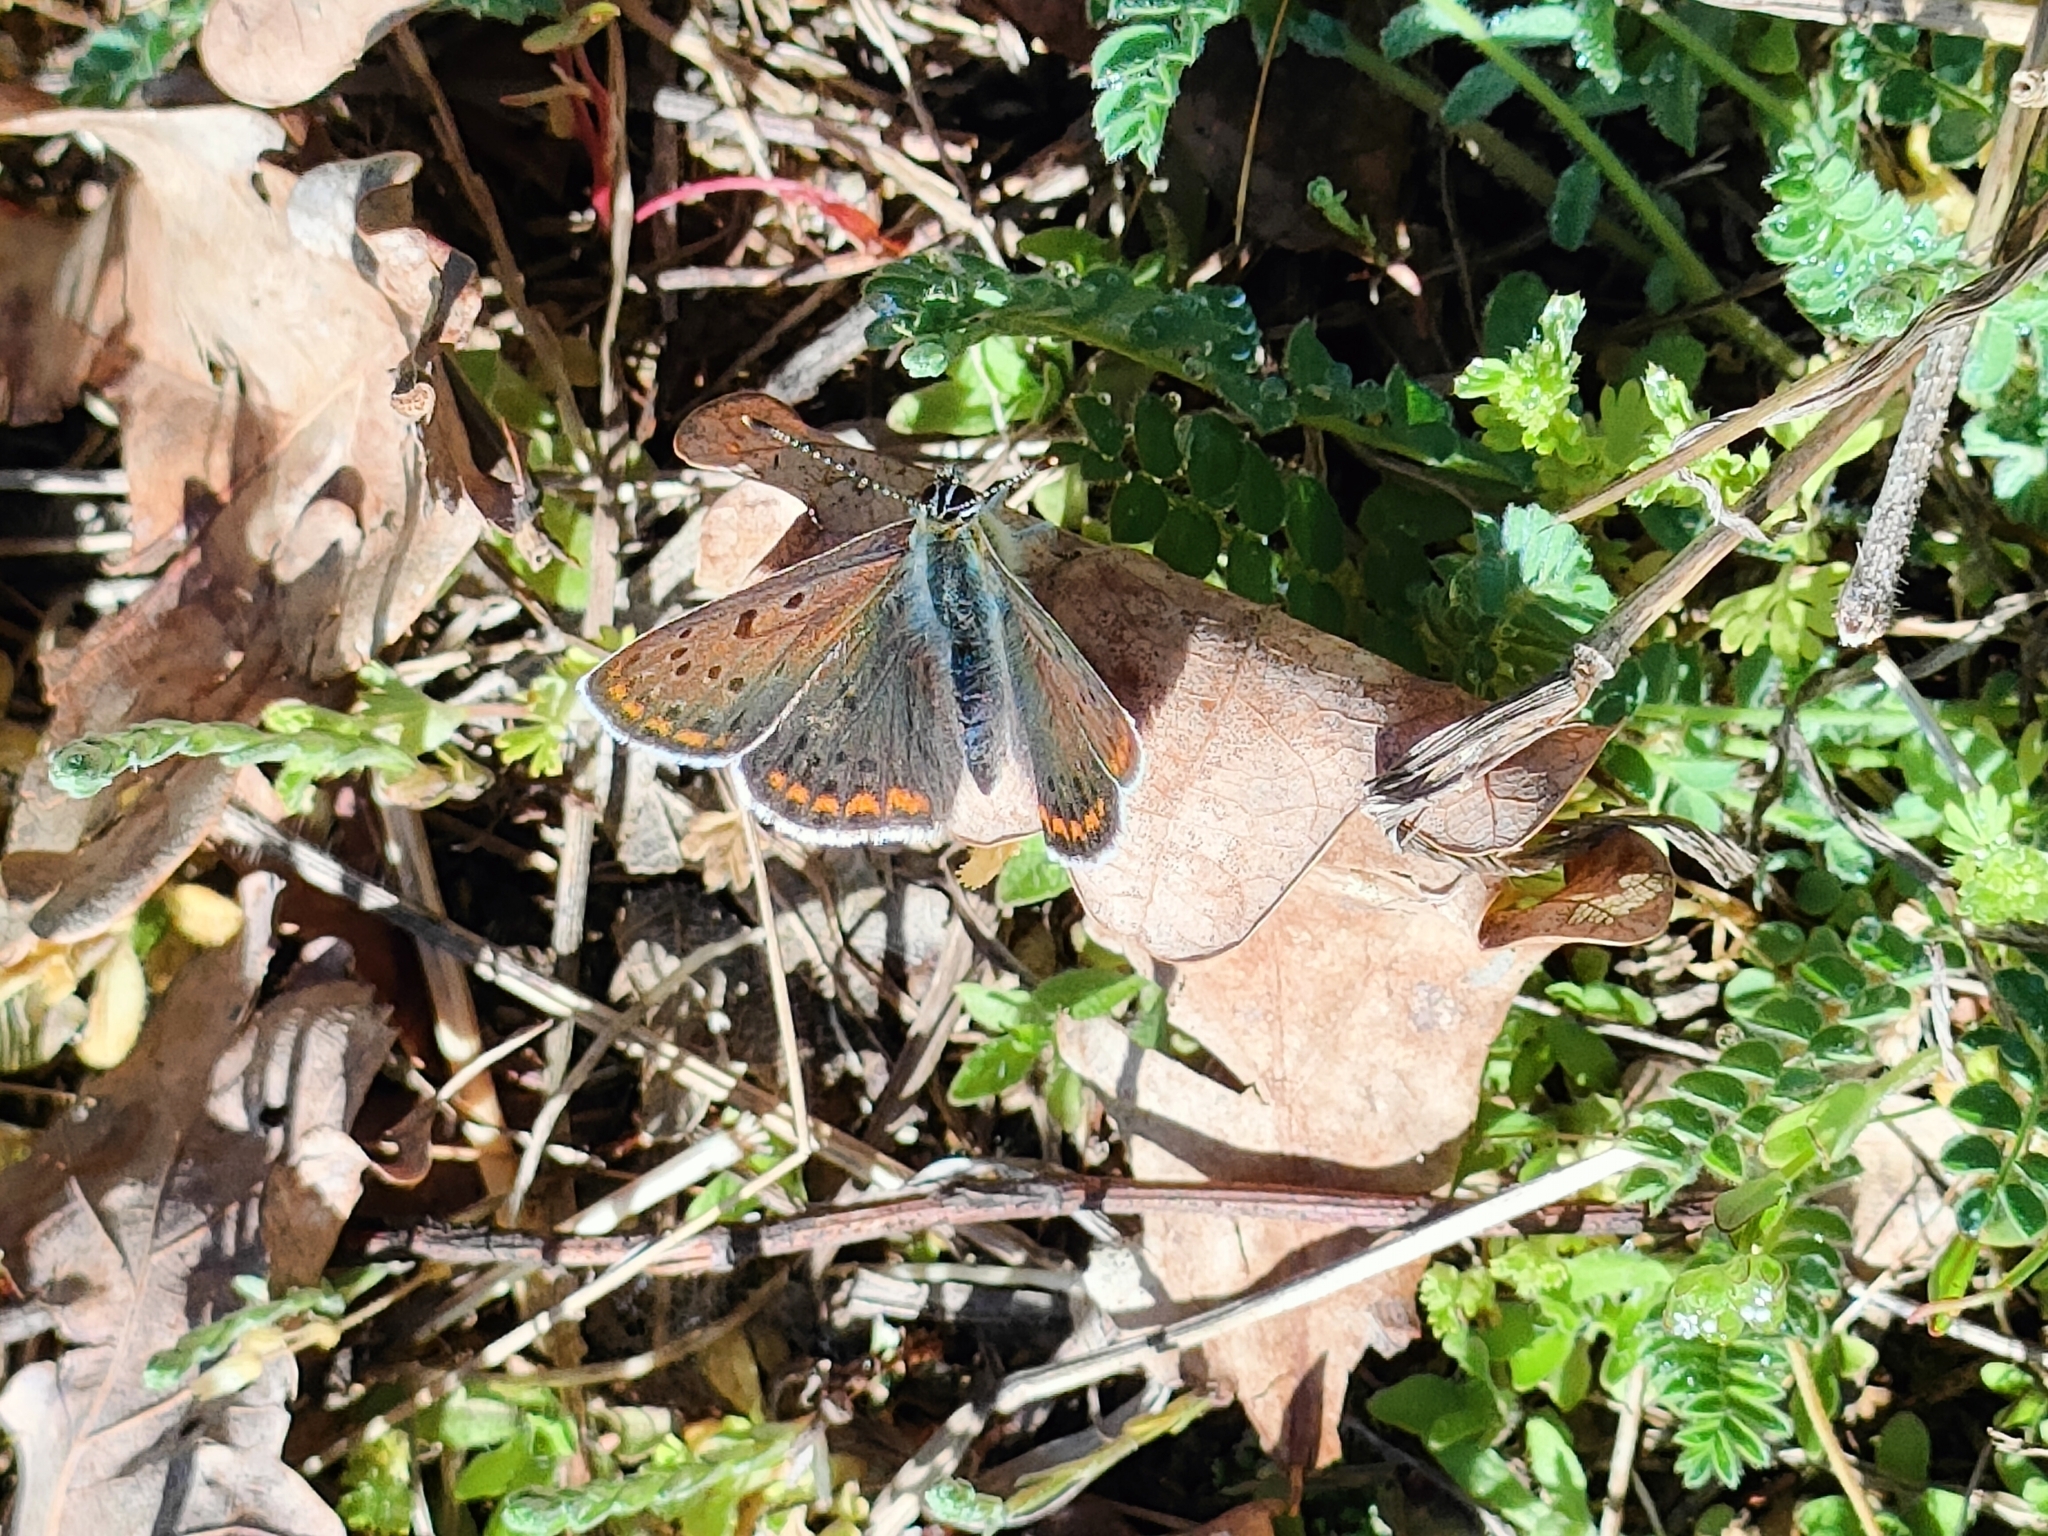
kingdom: Animalia
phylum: Arthropoda
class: Insecta
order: Lepidoptera
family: Lycaenidae
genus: Loweia
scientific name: Loweia tityrus
